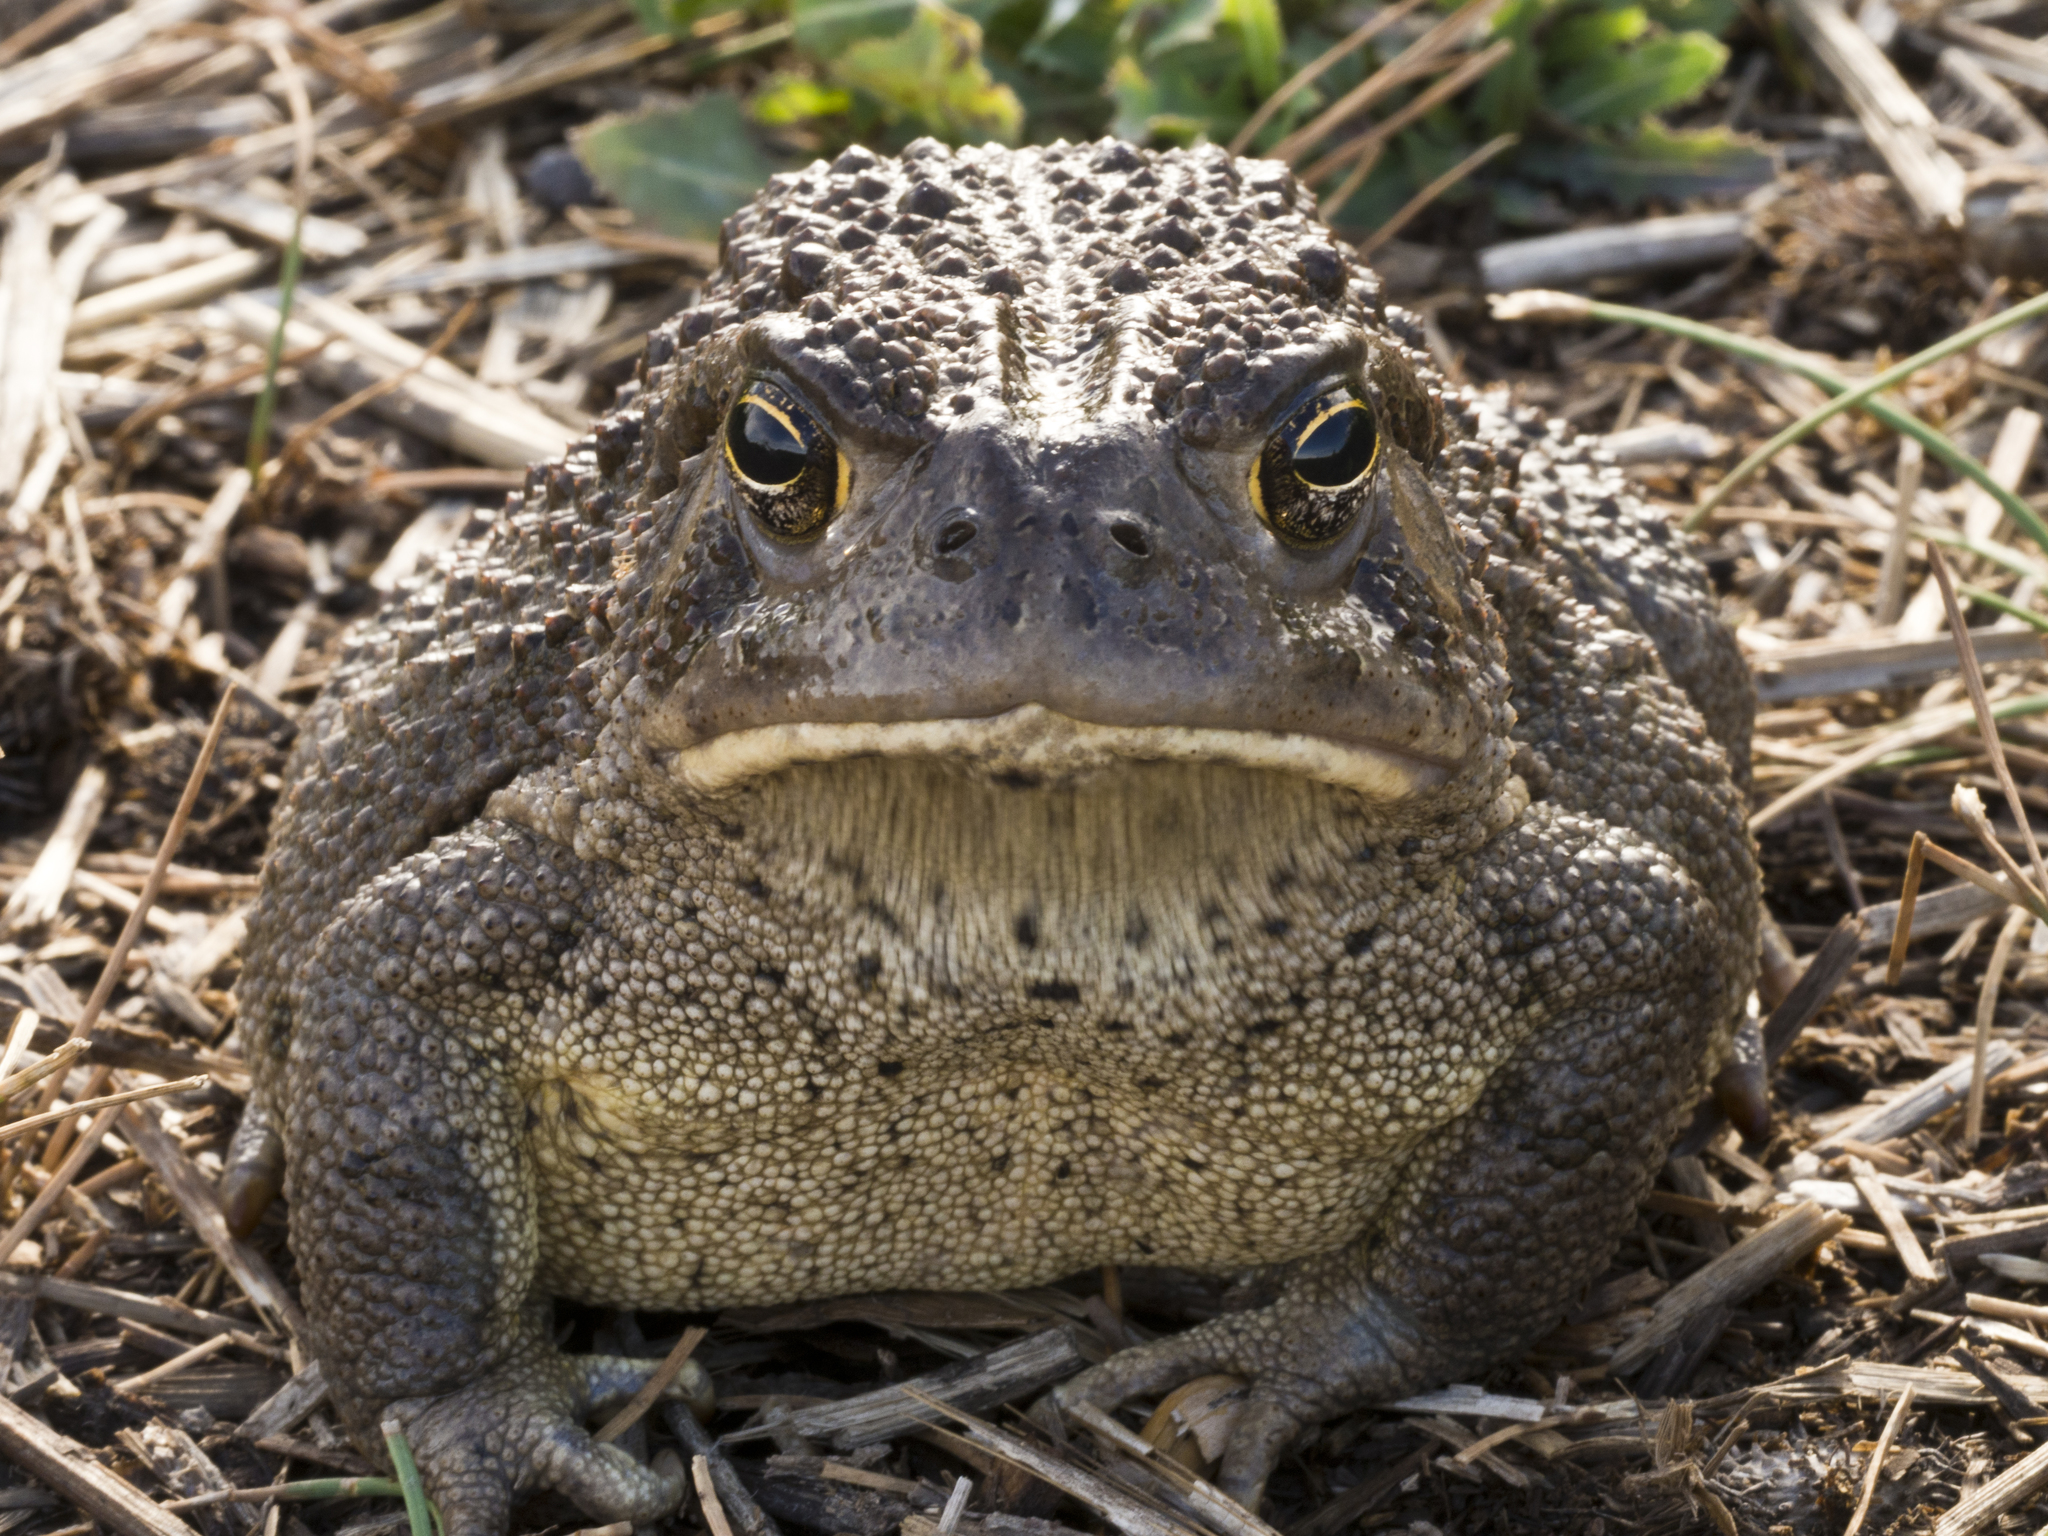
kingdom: Animalia
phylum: Chordata
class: Amphibia
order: Anura
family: Bufonidae
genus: Anaxyrus
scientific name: Anaxyrus woodhousii
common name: Woodhouse's toad
